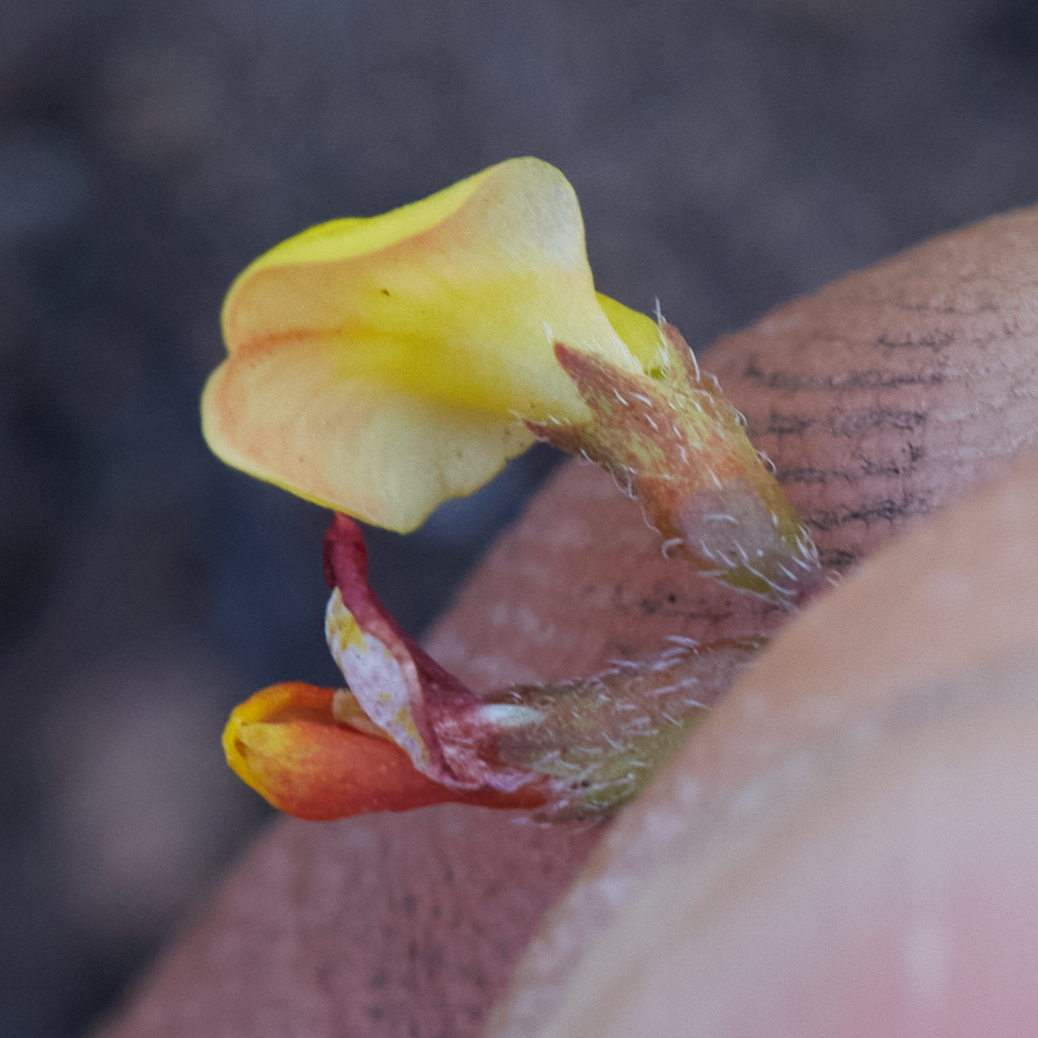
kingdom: Plantae
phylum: Tracheophyta
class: Magnoliopsida
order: Fabales
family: Fabaceae
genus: Acmispon
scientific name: Acmispon strigosus
